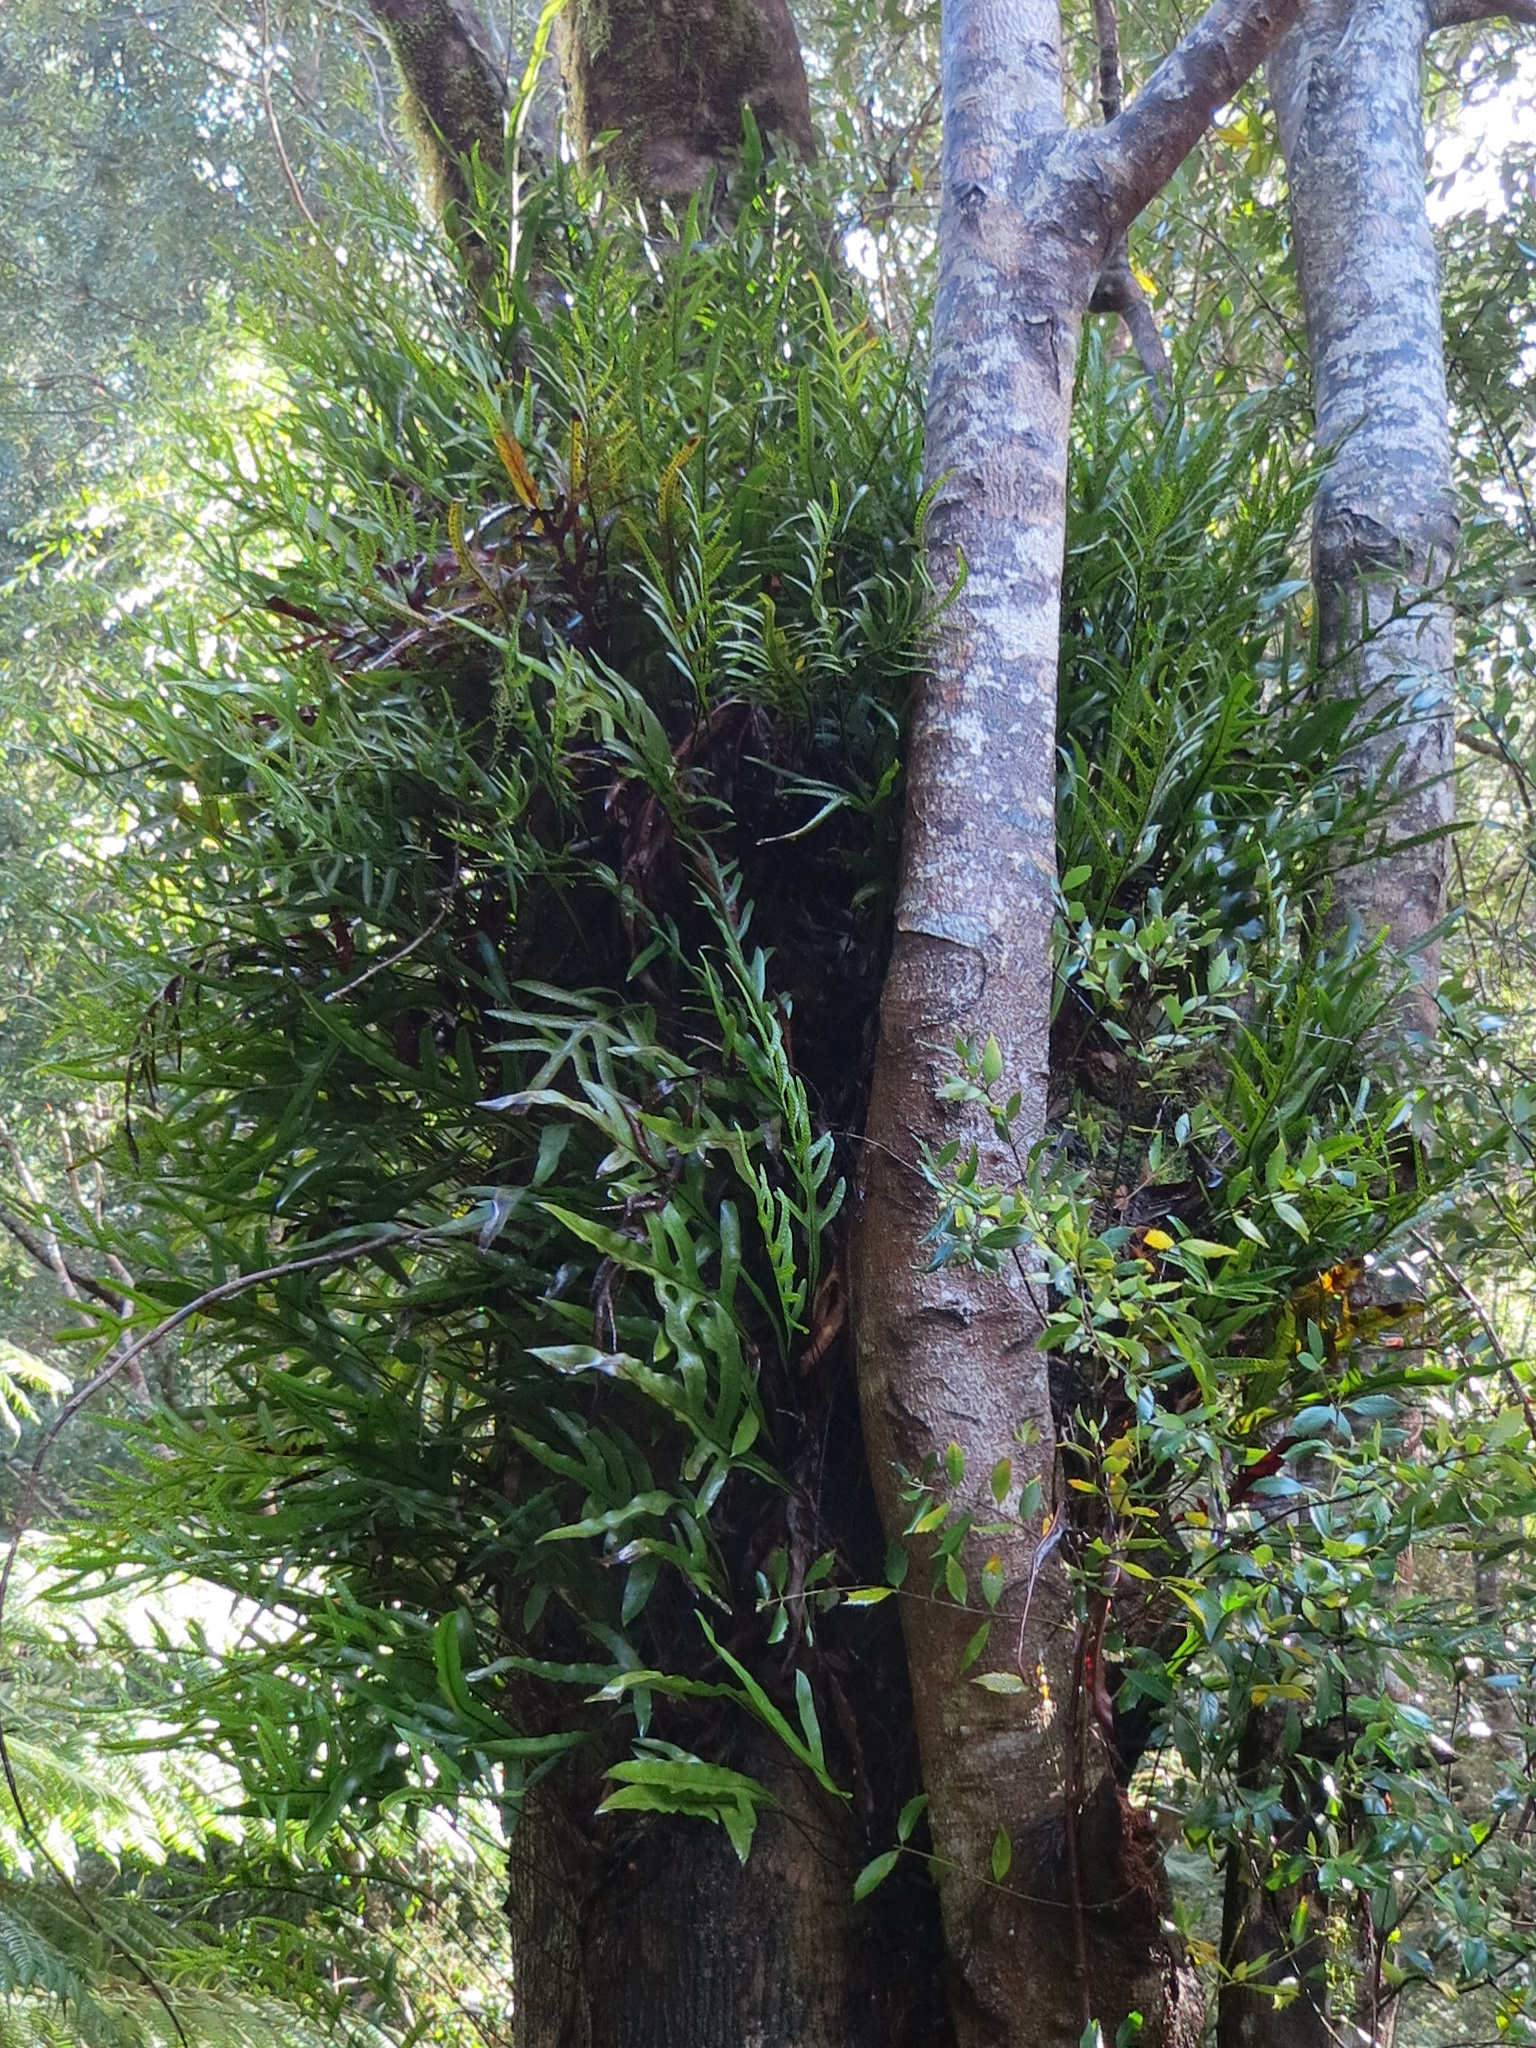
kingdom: Plantae
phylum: Tracheophyta
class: Polypodiopsida
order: Polypodiales
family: Polypodiaceae
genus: Lecanopteris
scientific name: Lecanopteris pustulata
